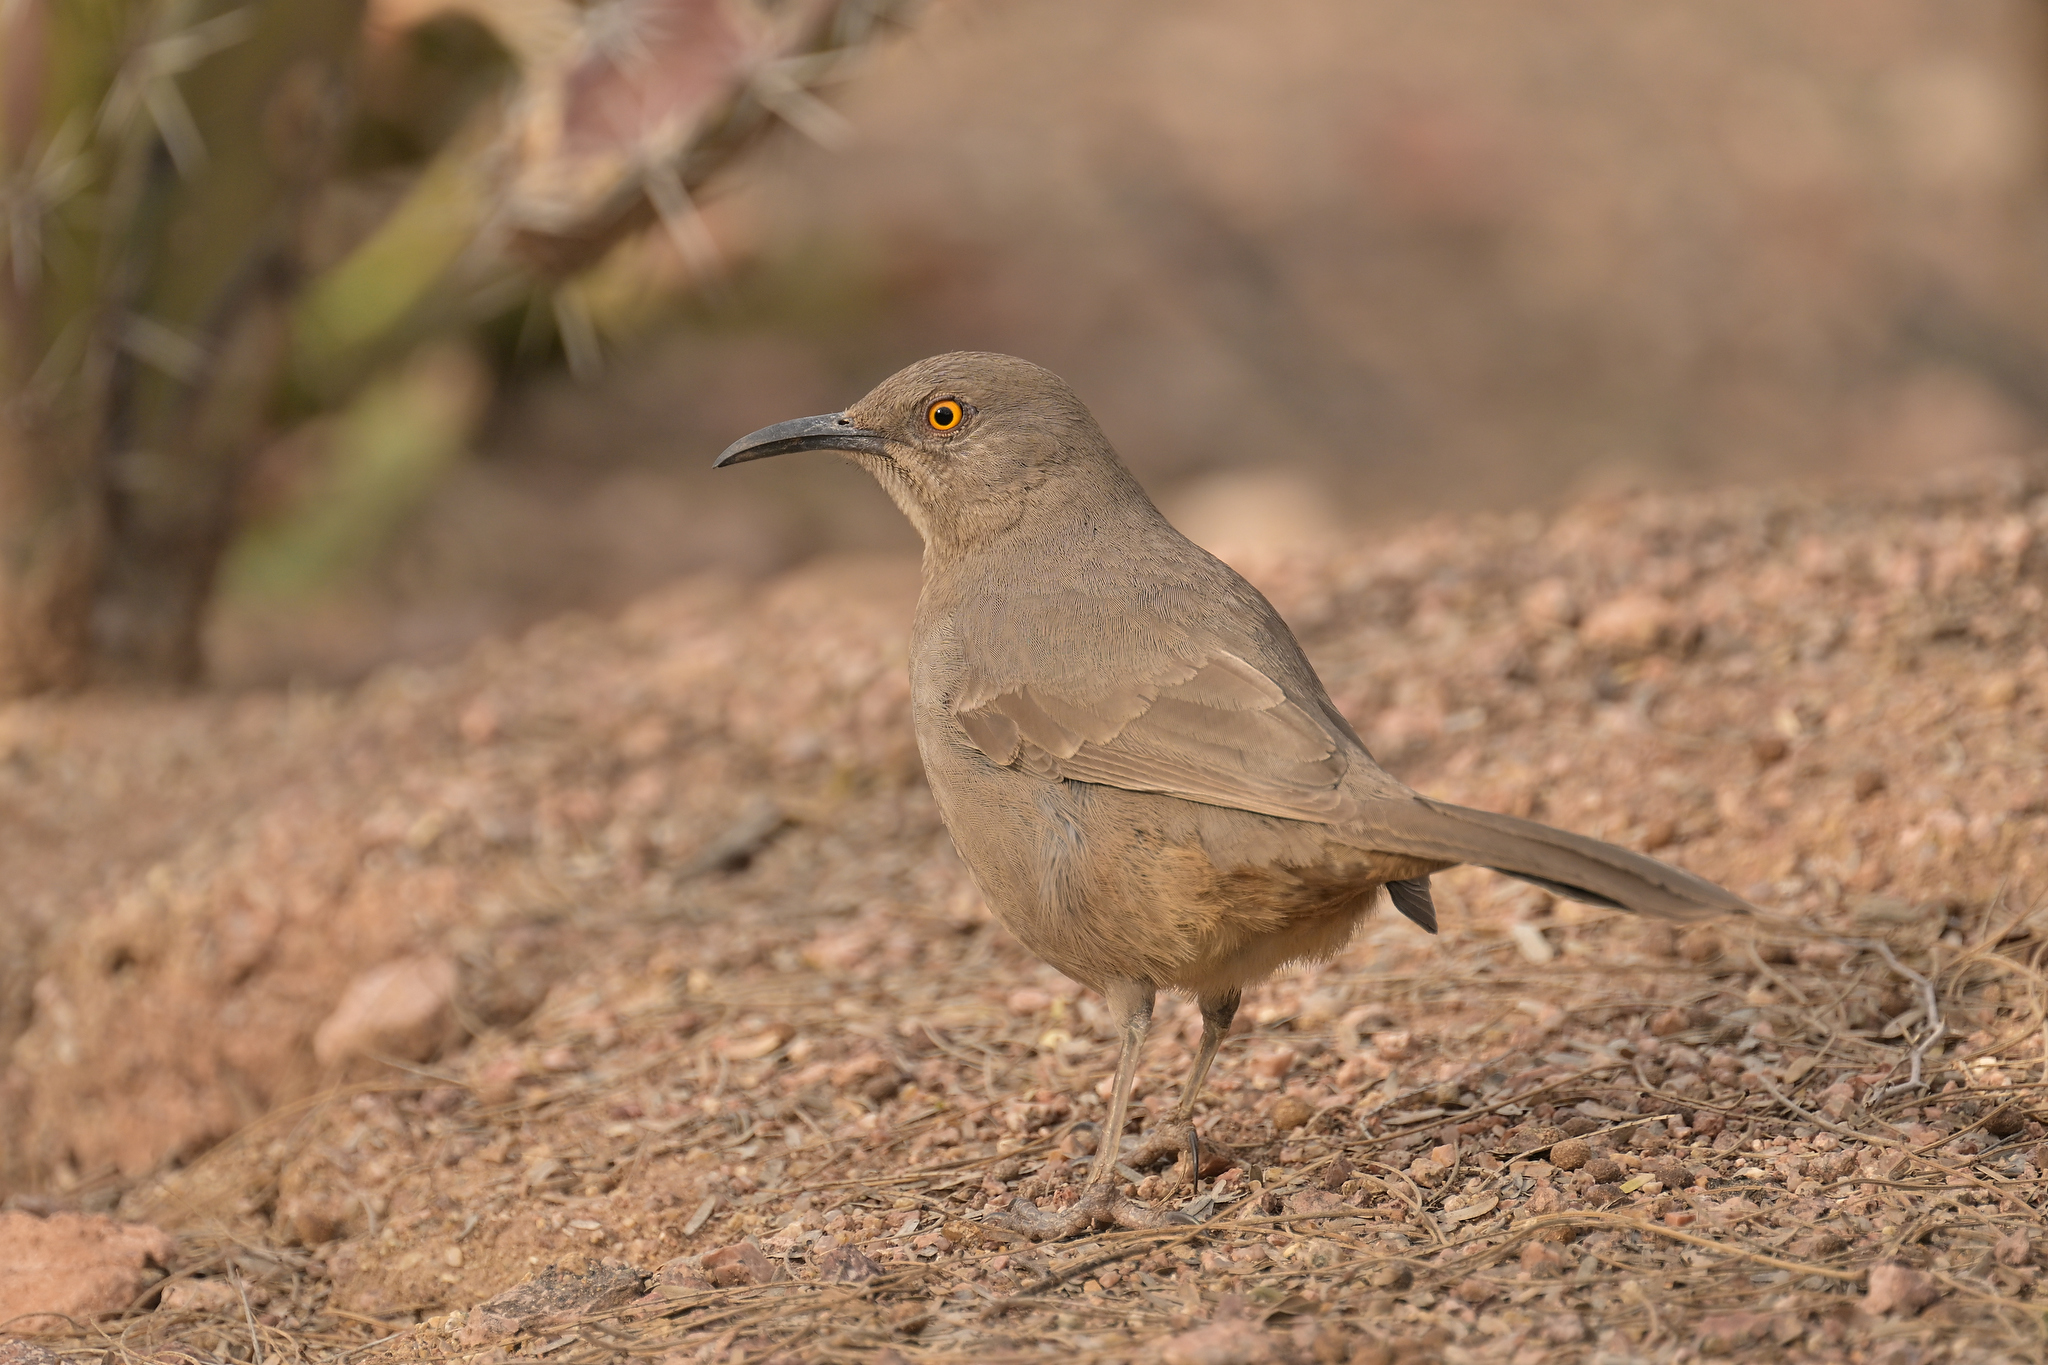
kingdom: Animalia
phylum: Chordata
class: Aves
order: Passeriformes
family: Mimidae
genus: Toxostoma
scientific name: Toxostoma curvirostre
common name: Curve-billed thrasher
